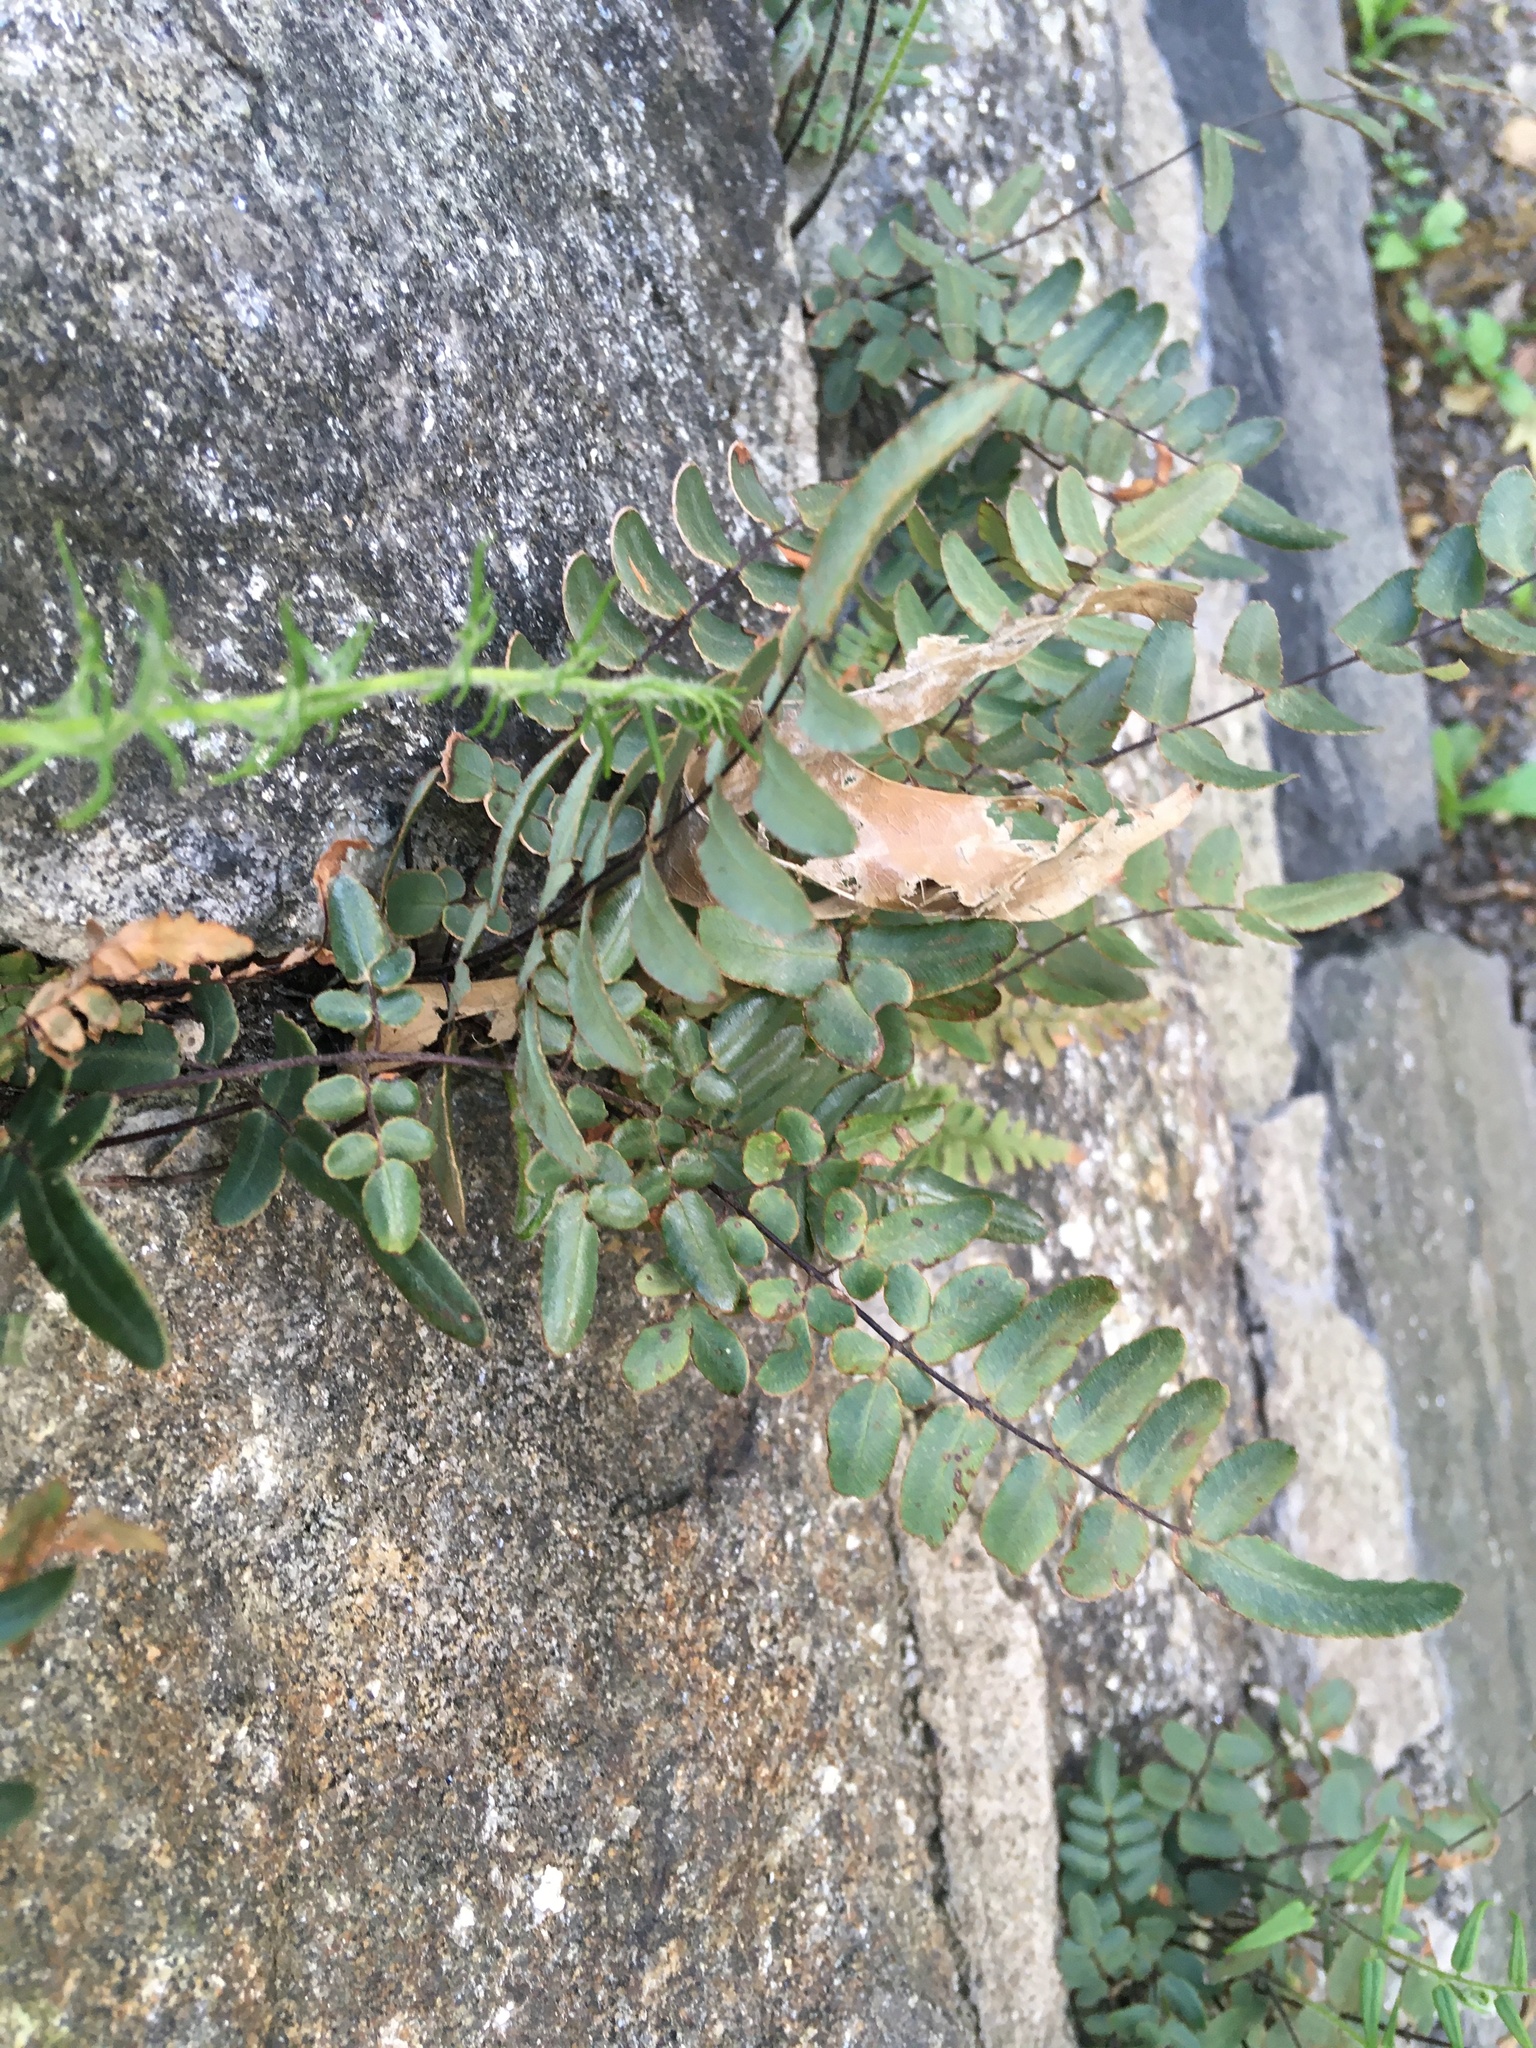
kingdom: Plantae
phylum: Tracheophyta
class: Polypodiopsida
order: Polypodiales
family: Pteridaceae
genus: Pellaea
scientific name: Pellaea atropurpurea
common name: Hairy cliffbrake
